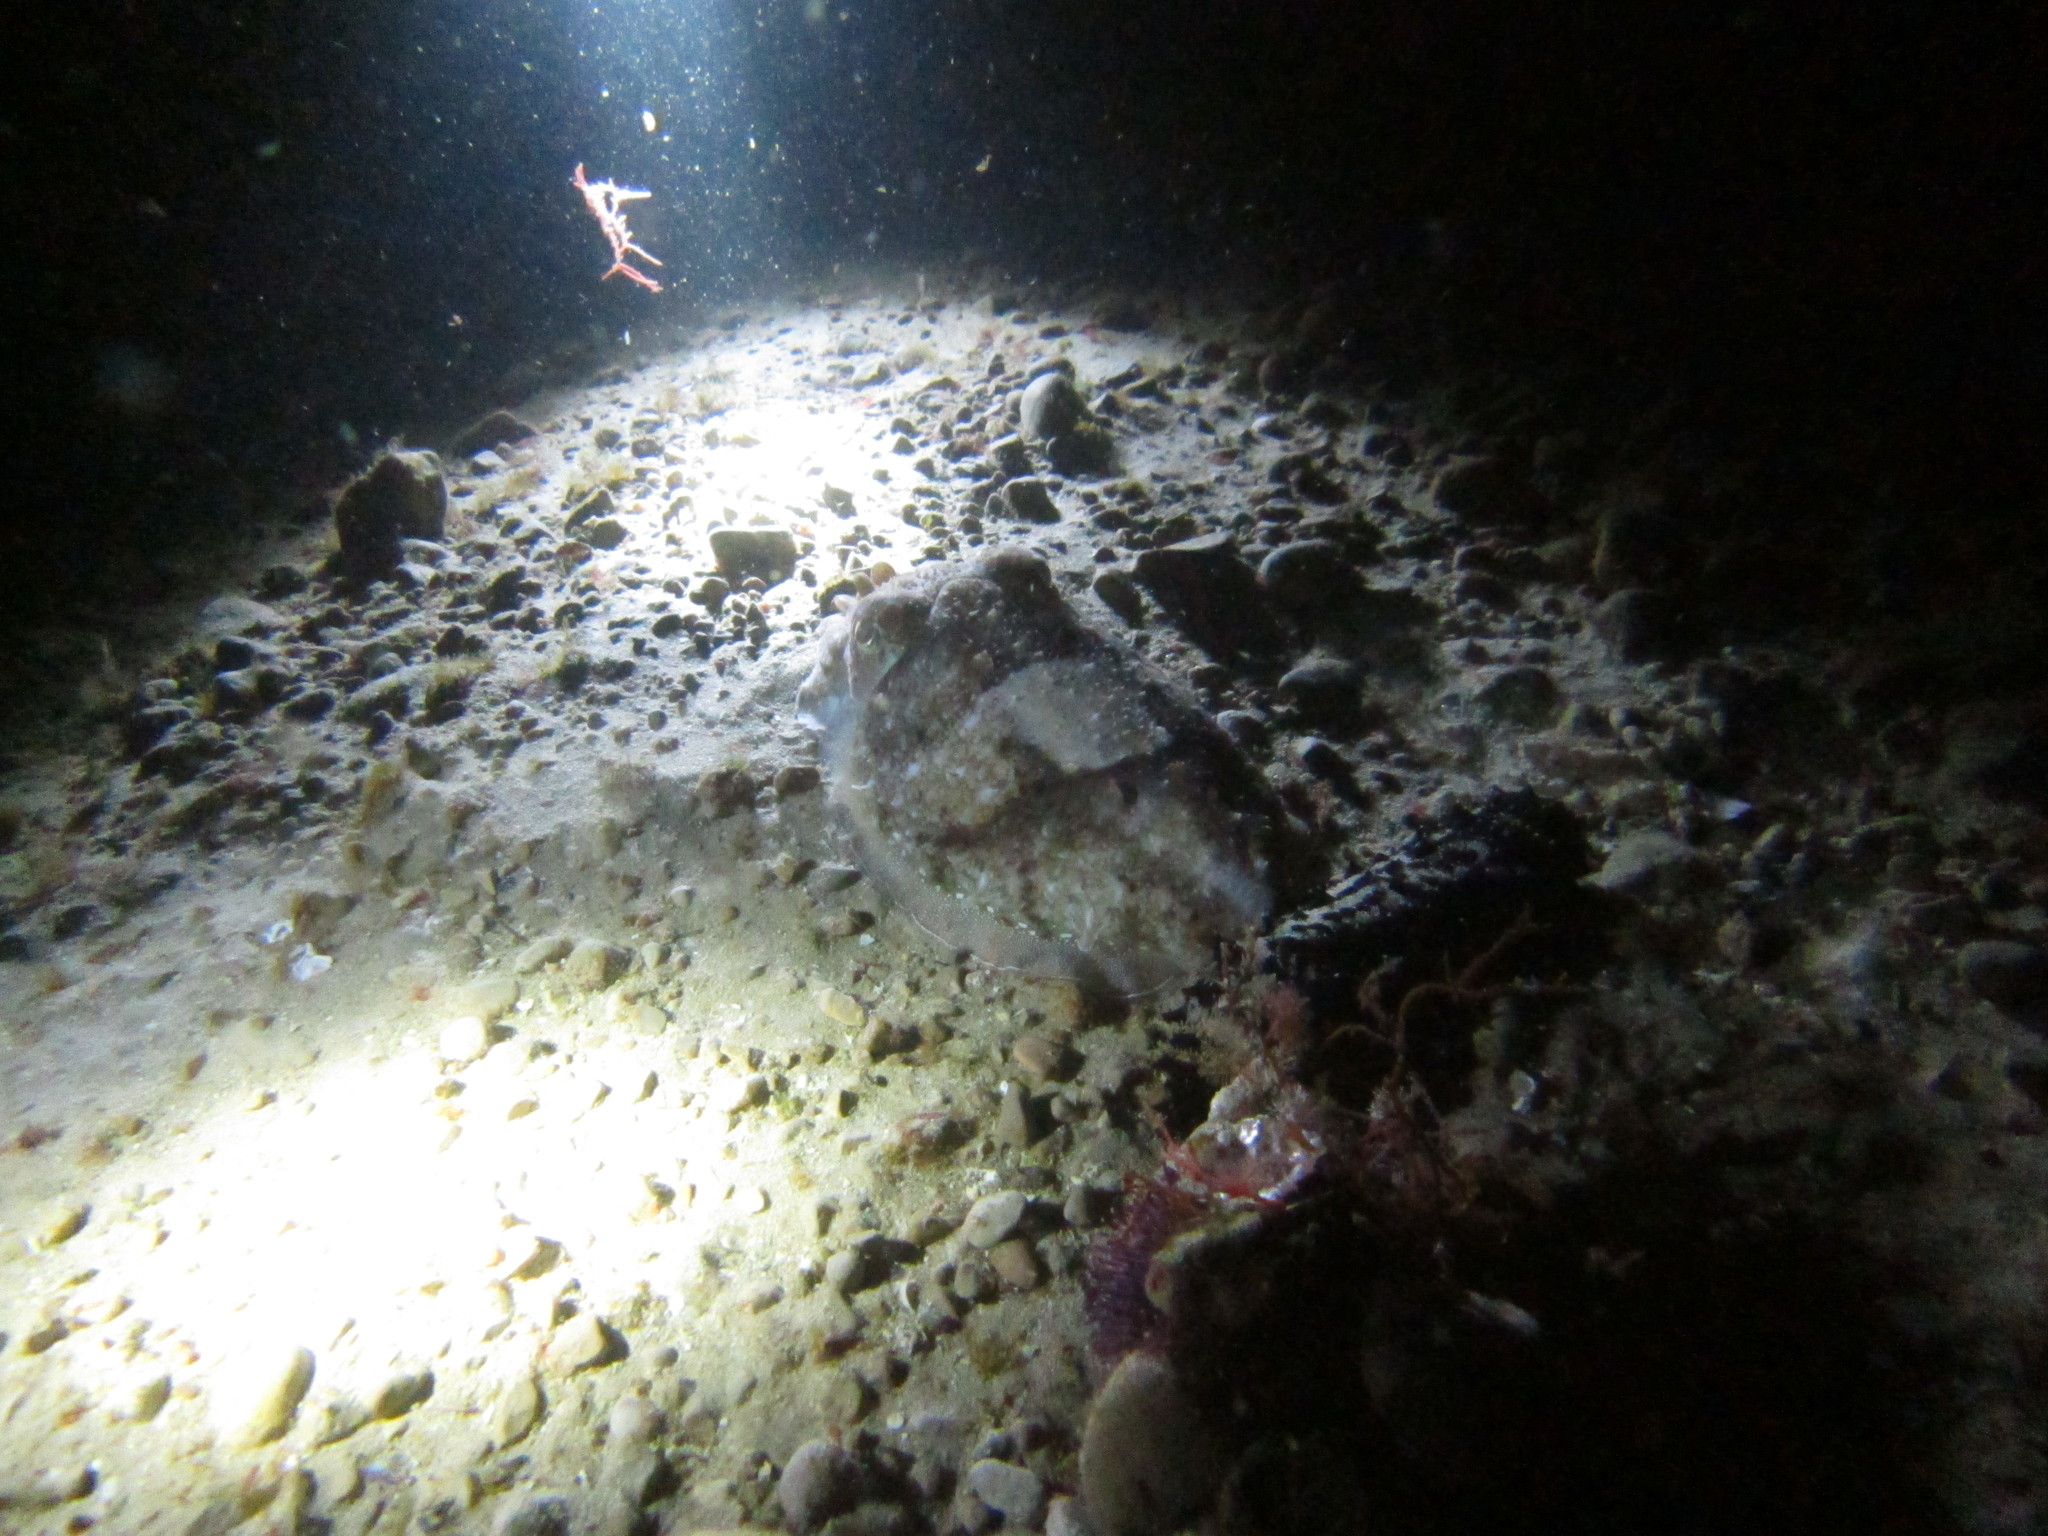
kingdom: Animalia
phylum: Mollusca
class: Cephalopoda
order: Sepiida
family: Sepiidae
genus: Sepia
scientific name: Sepia officinalis
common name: Common cuttlefish
